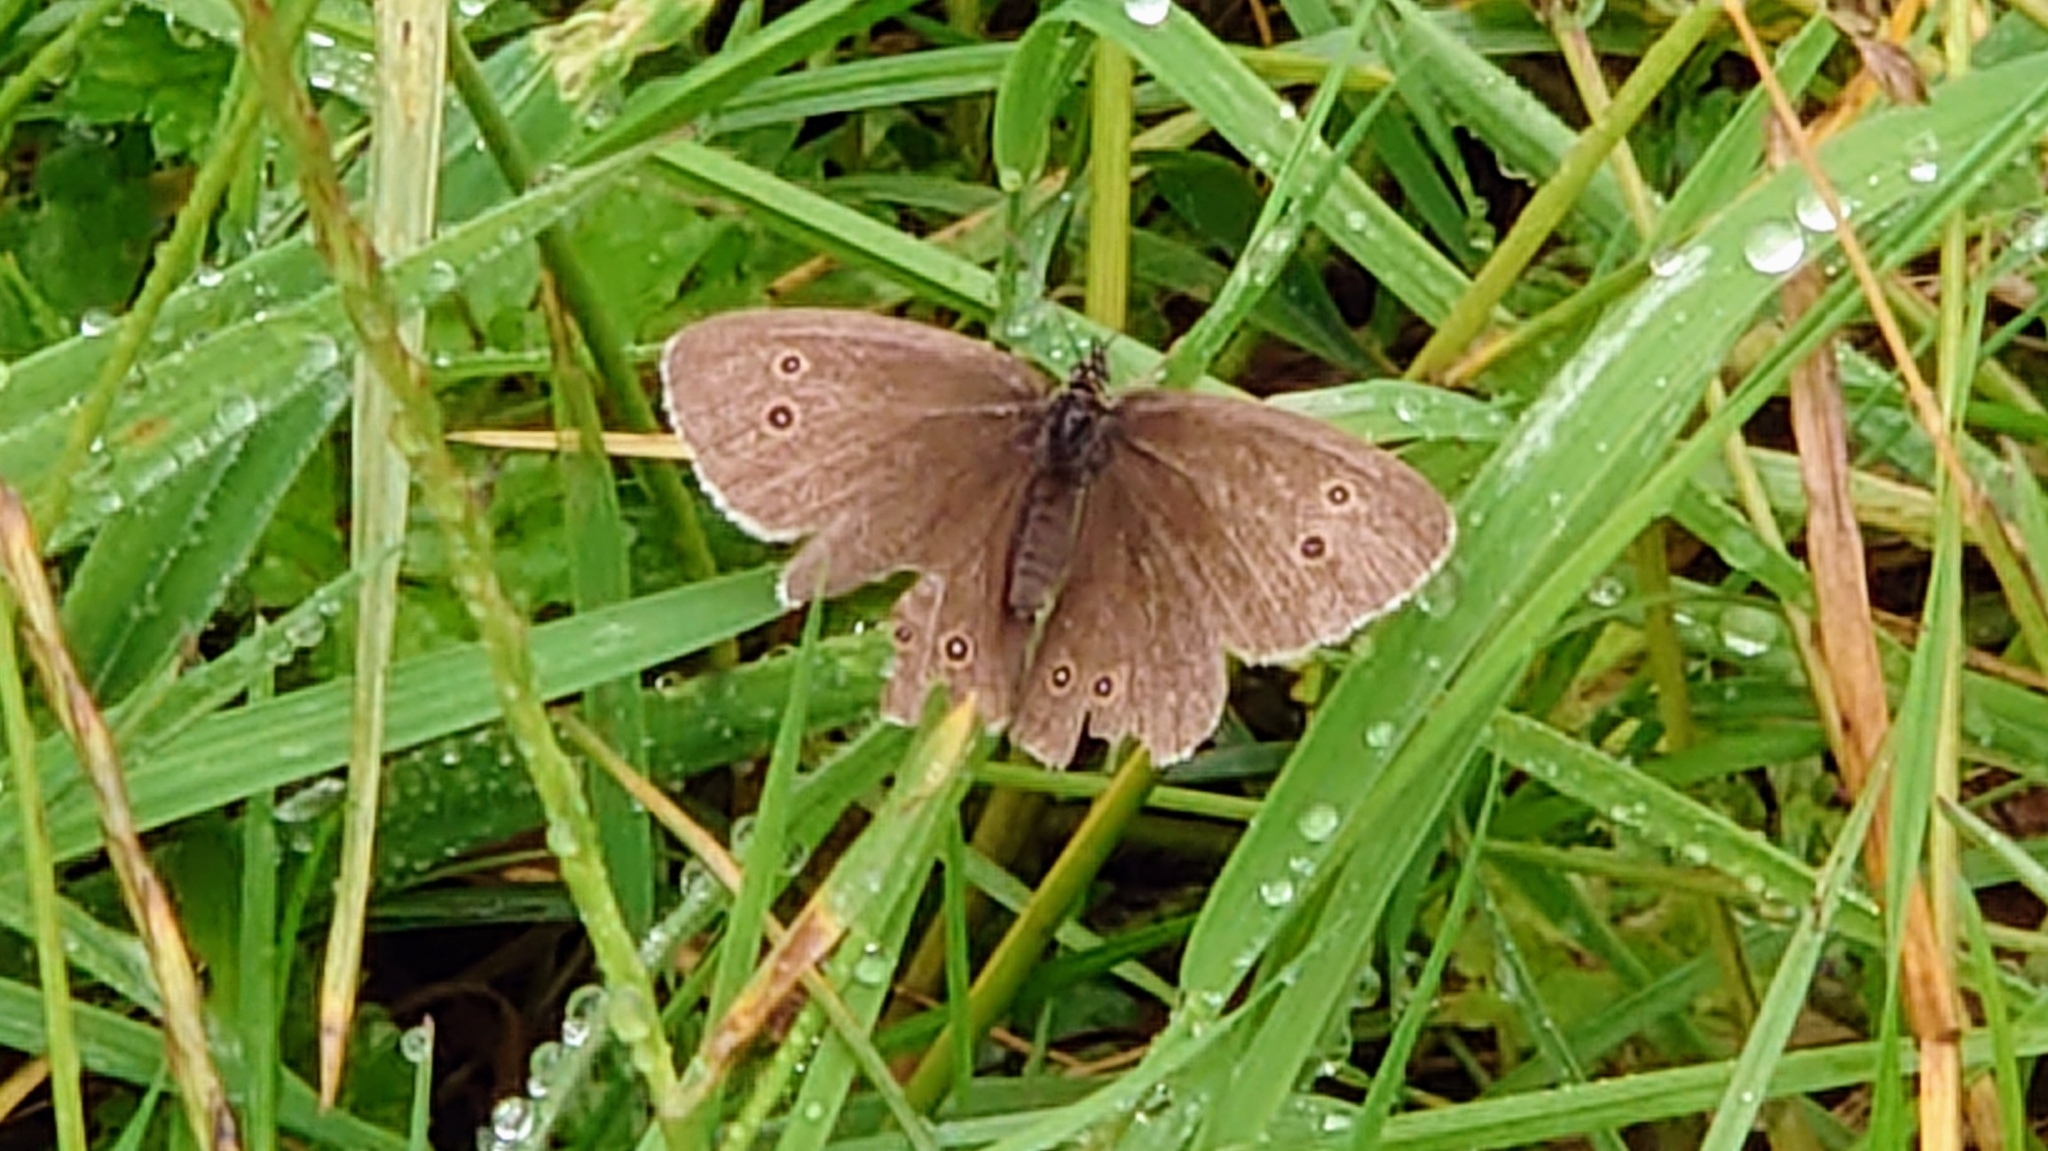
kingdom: Animalia
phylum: Arthropoda
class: Insecta
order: Lepidoptera
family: Nymphalidae
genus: Aphantopus
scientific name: Aphantopus hyperantus
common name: Ringlet
